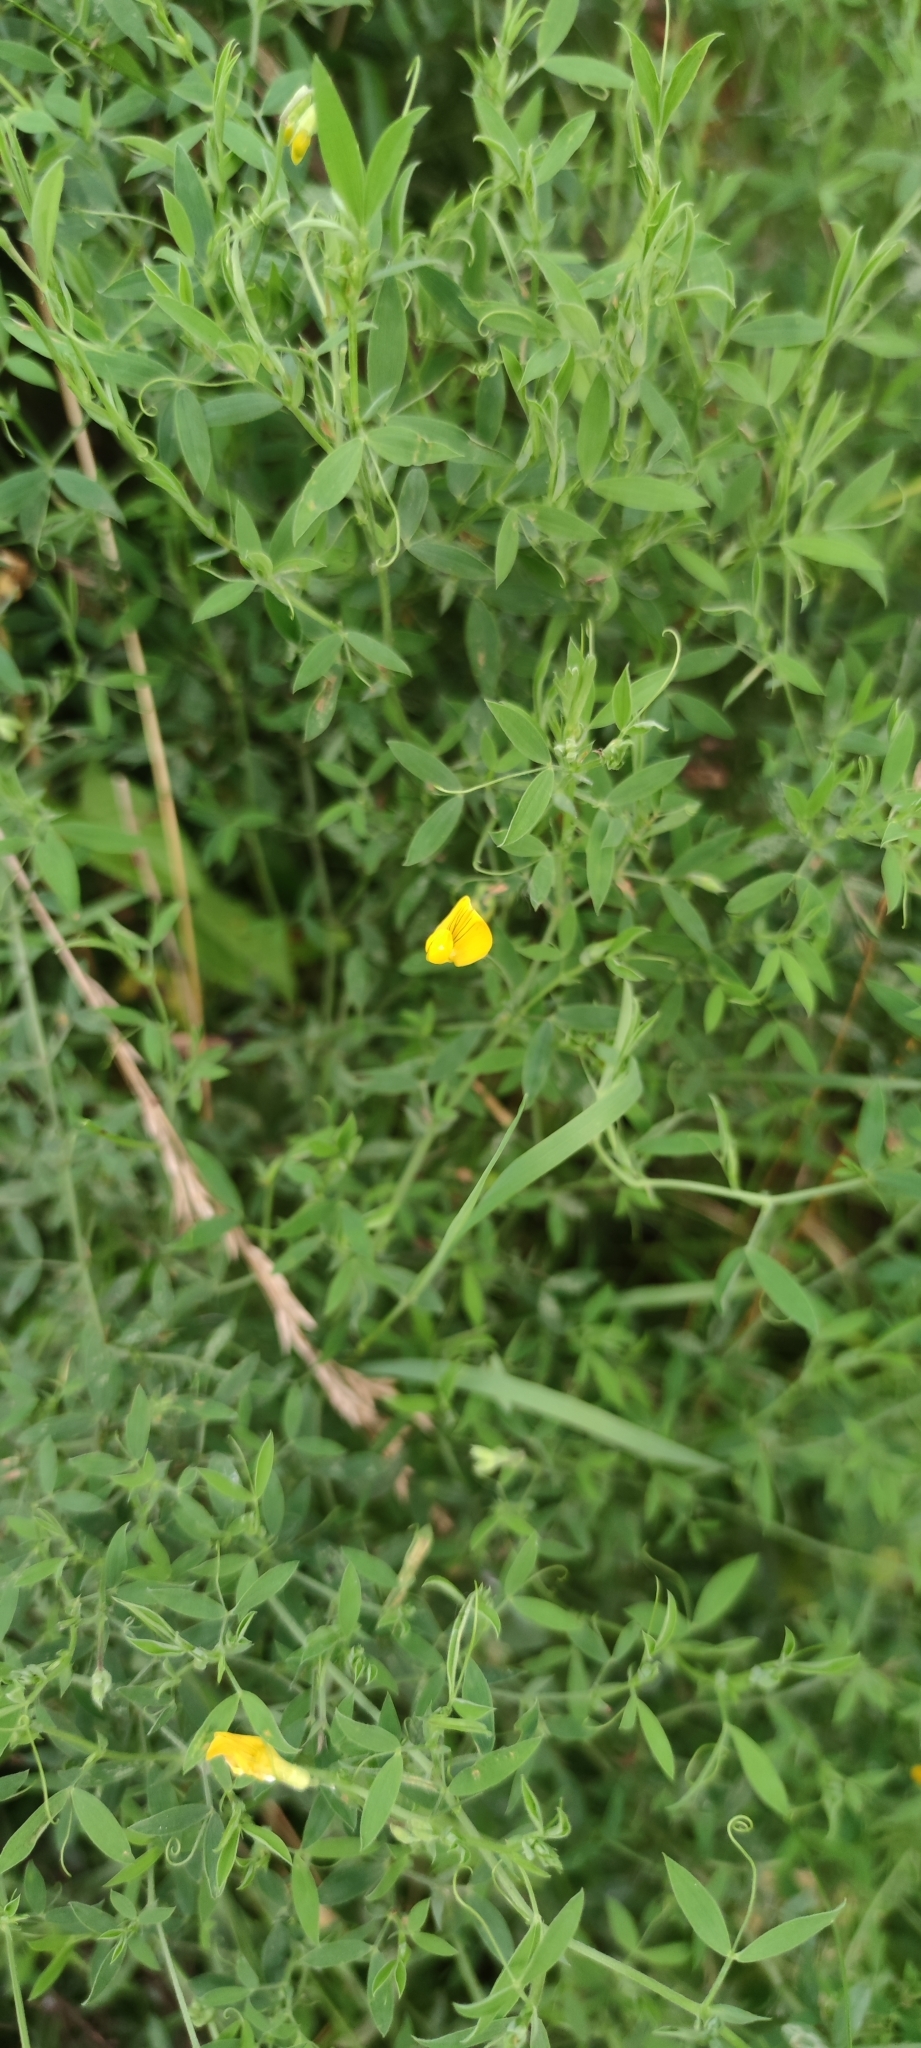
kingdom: Plantae
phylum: Tracheophyta
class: Magnoliopsida
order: Fabales
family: Fabaceae
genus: Lathyrus
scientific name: Lathyrus pratensis
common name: Meadow vetchling
